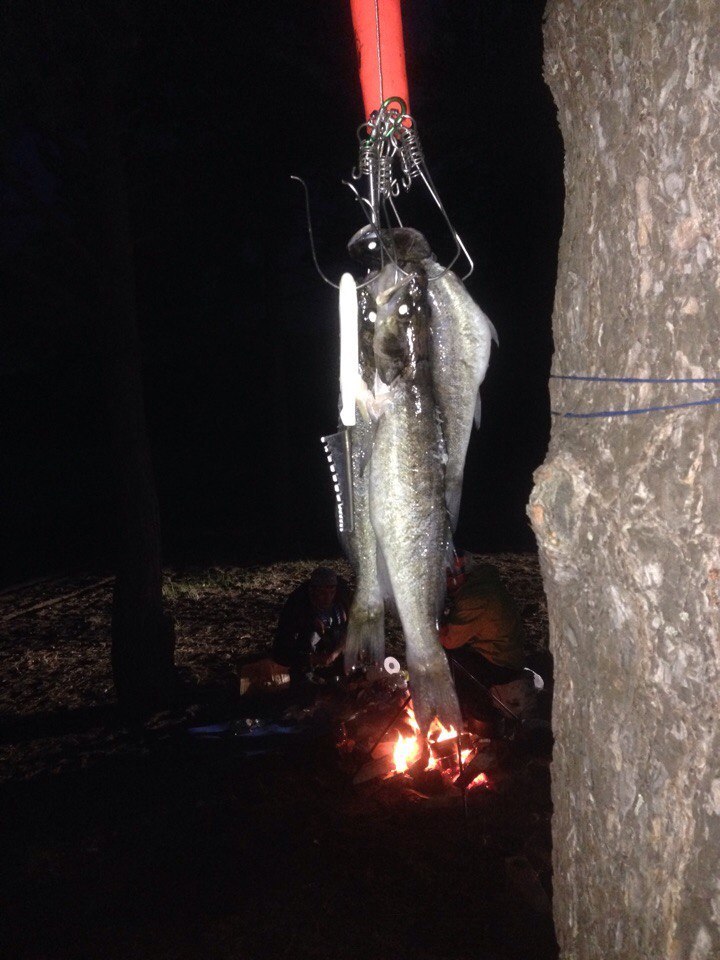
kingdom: Animalia
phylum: Chordata
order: Perciformes
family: Percidae
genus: Sander
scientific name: Sander lucioperca
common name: Pikeperch
